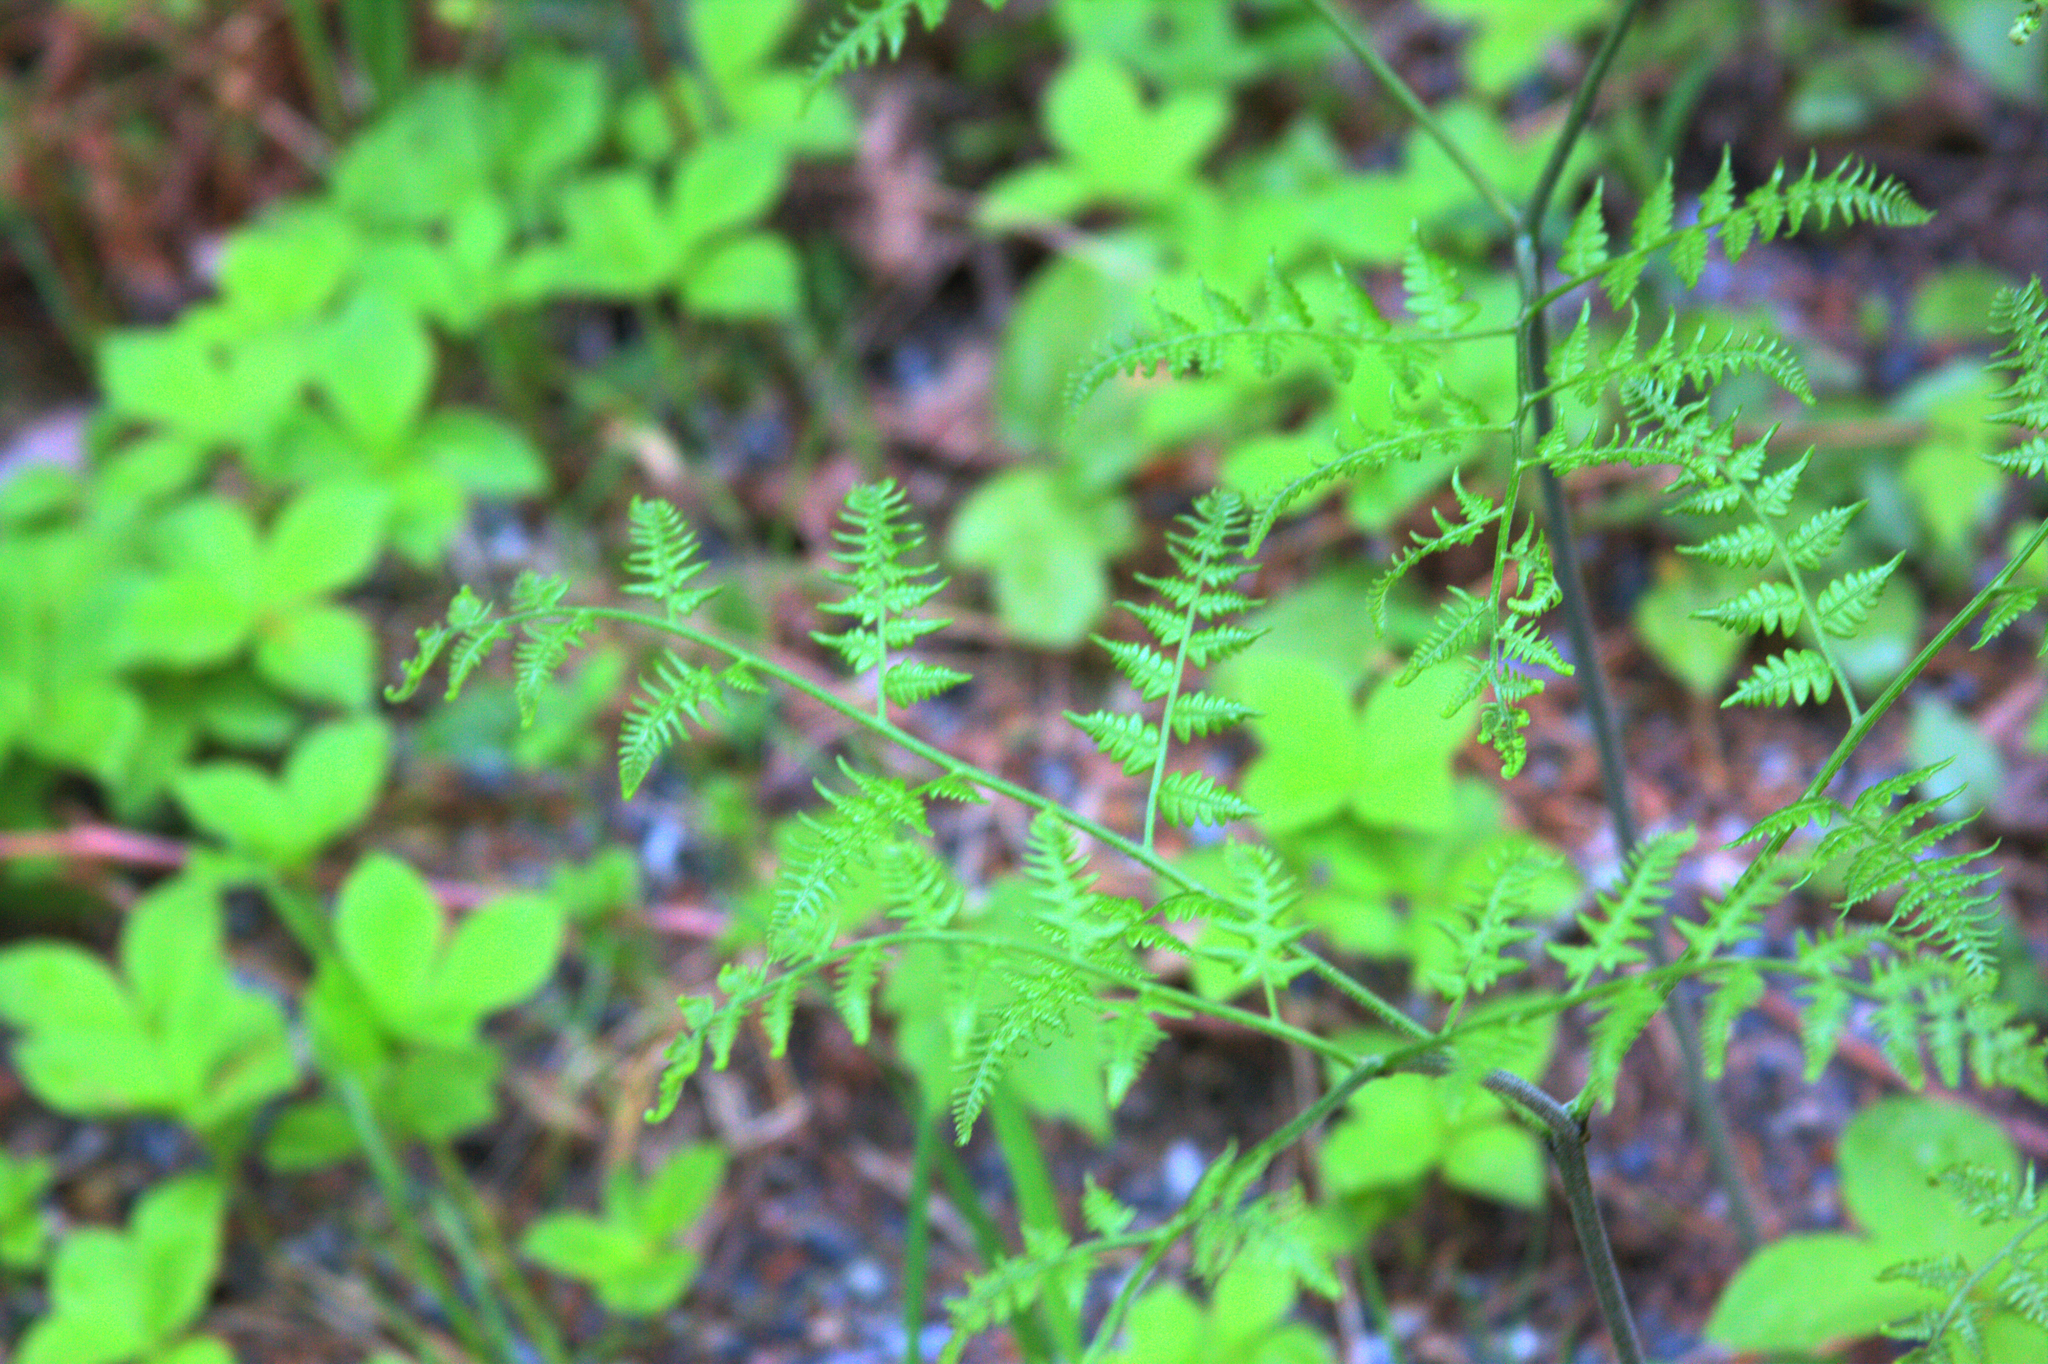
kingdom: Plantae
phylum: Tracheophyta
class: Polypodiopsida
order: Polypodiales
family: Dennstaedtiaceae
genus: Pteridium
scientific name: Pteridium aquilinum
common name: Bracken
